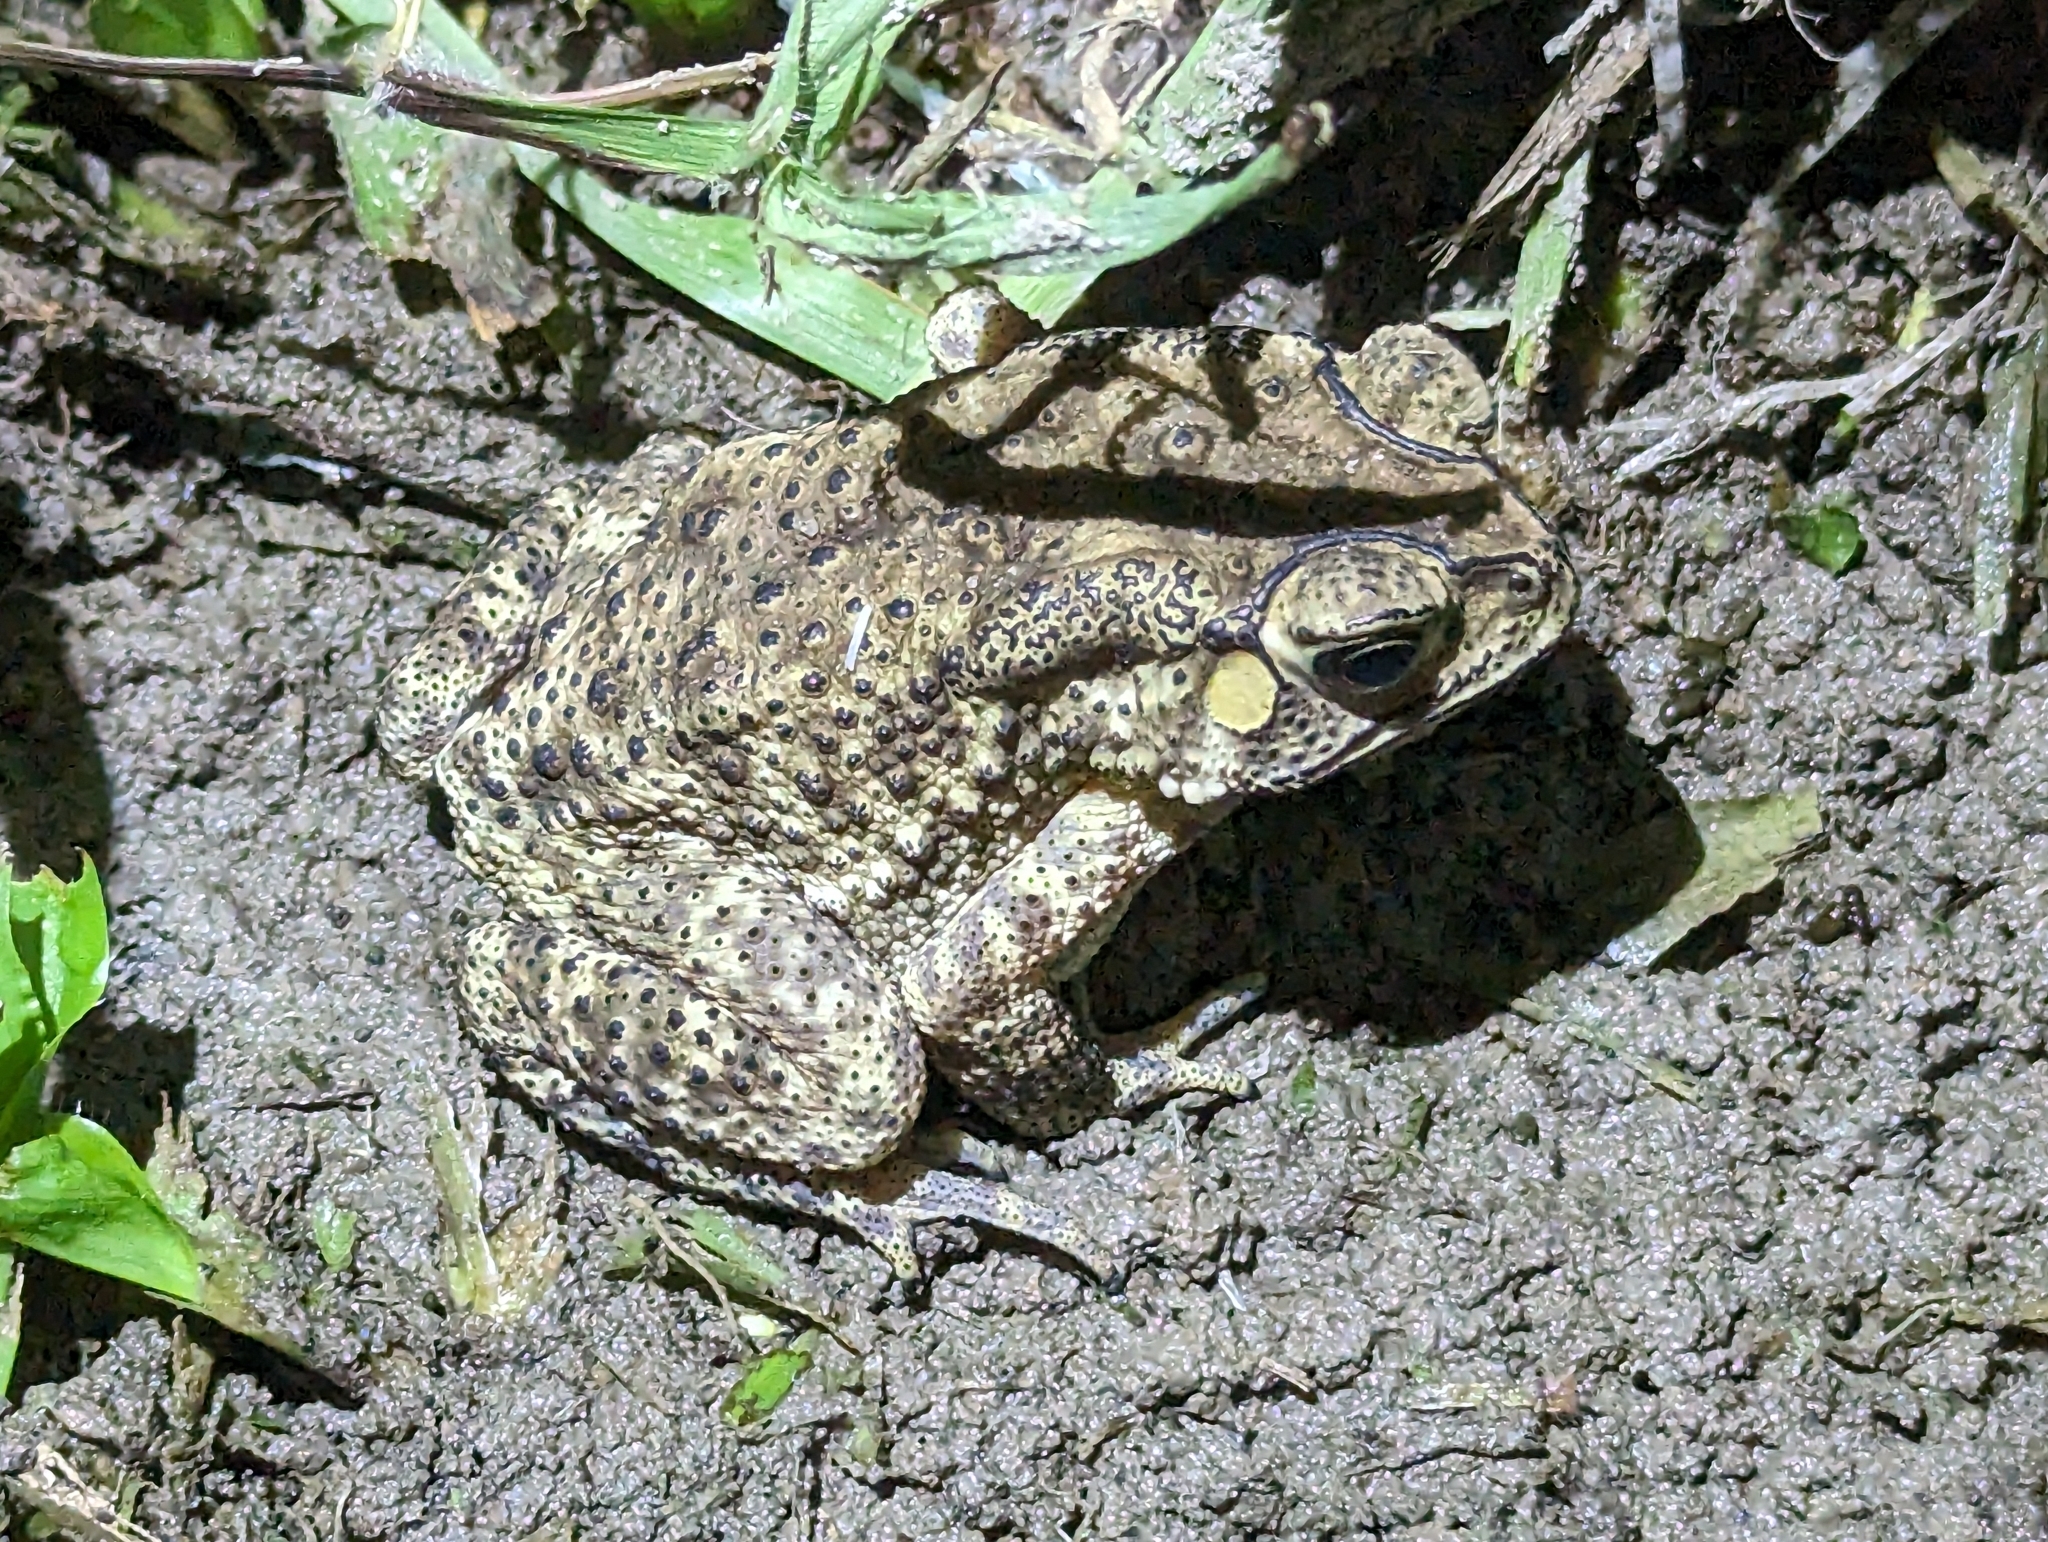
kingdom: Animalia
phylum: Chordata
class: Amphibia
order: Anura
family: Bufonidae
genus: Duttaphrynus
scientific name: Duttaphrynus melanostictus
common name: Common sunda toad
